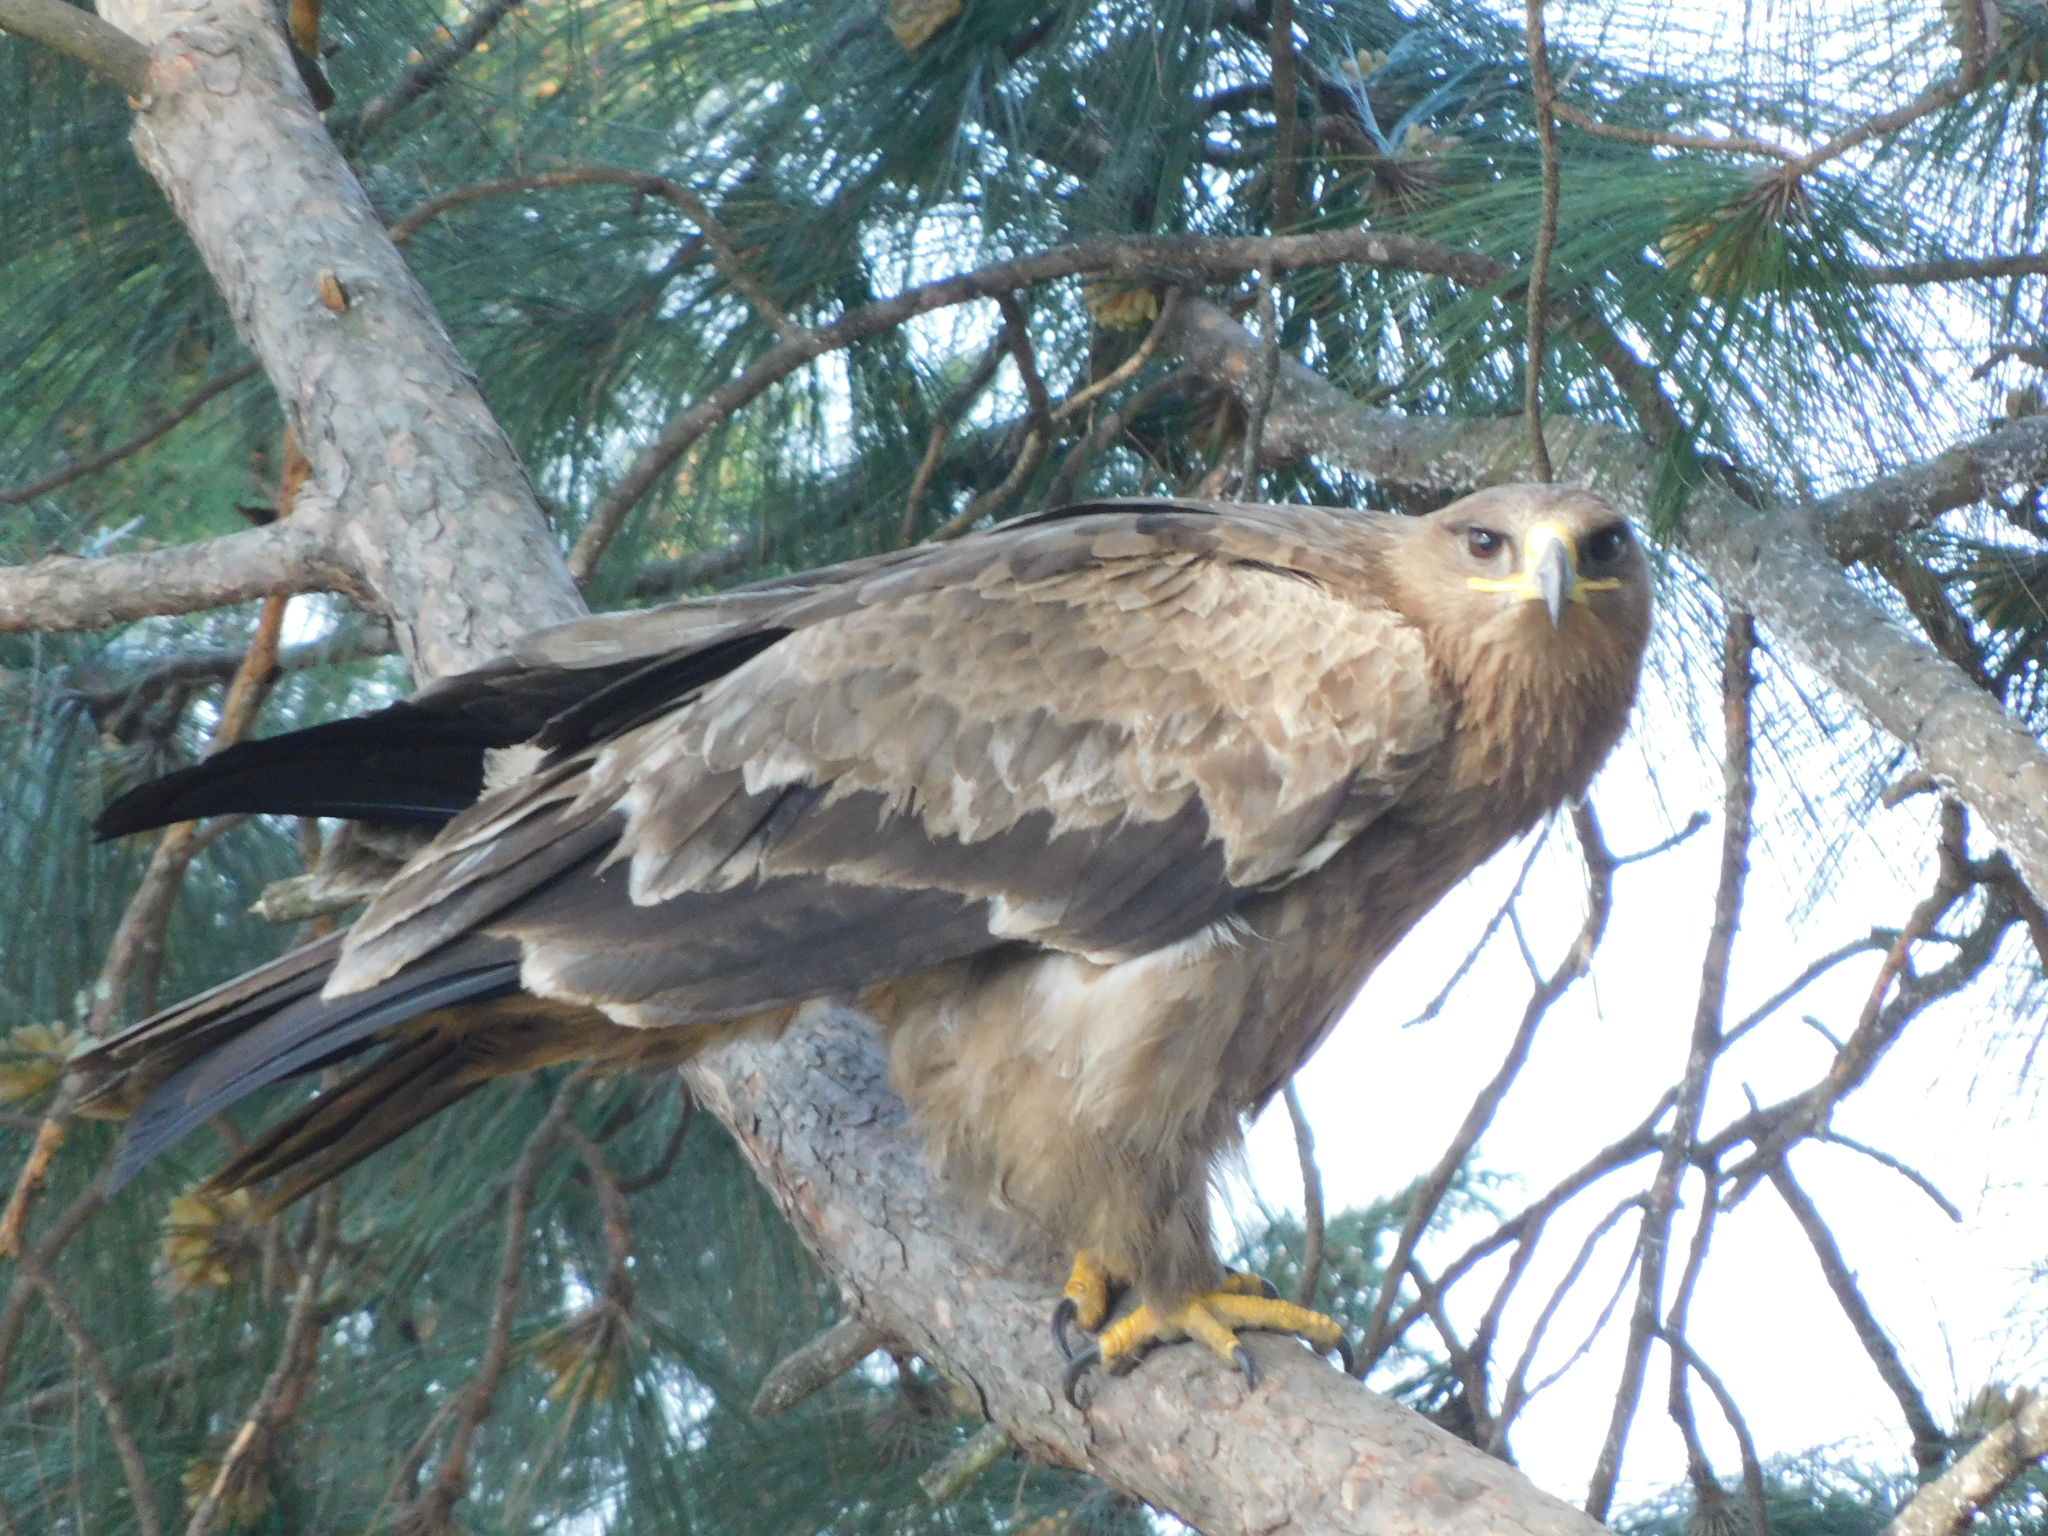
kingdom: Animalia
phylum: Chordata
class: Aves
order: Accipitriformes
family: Accipitridae
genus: Aquila
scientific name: Aquila nipalensis
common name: Steppe eagle
